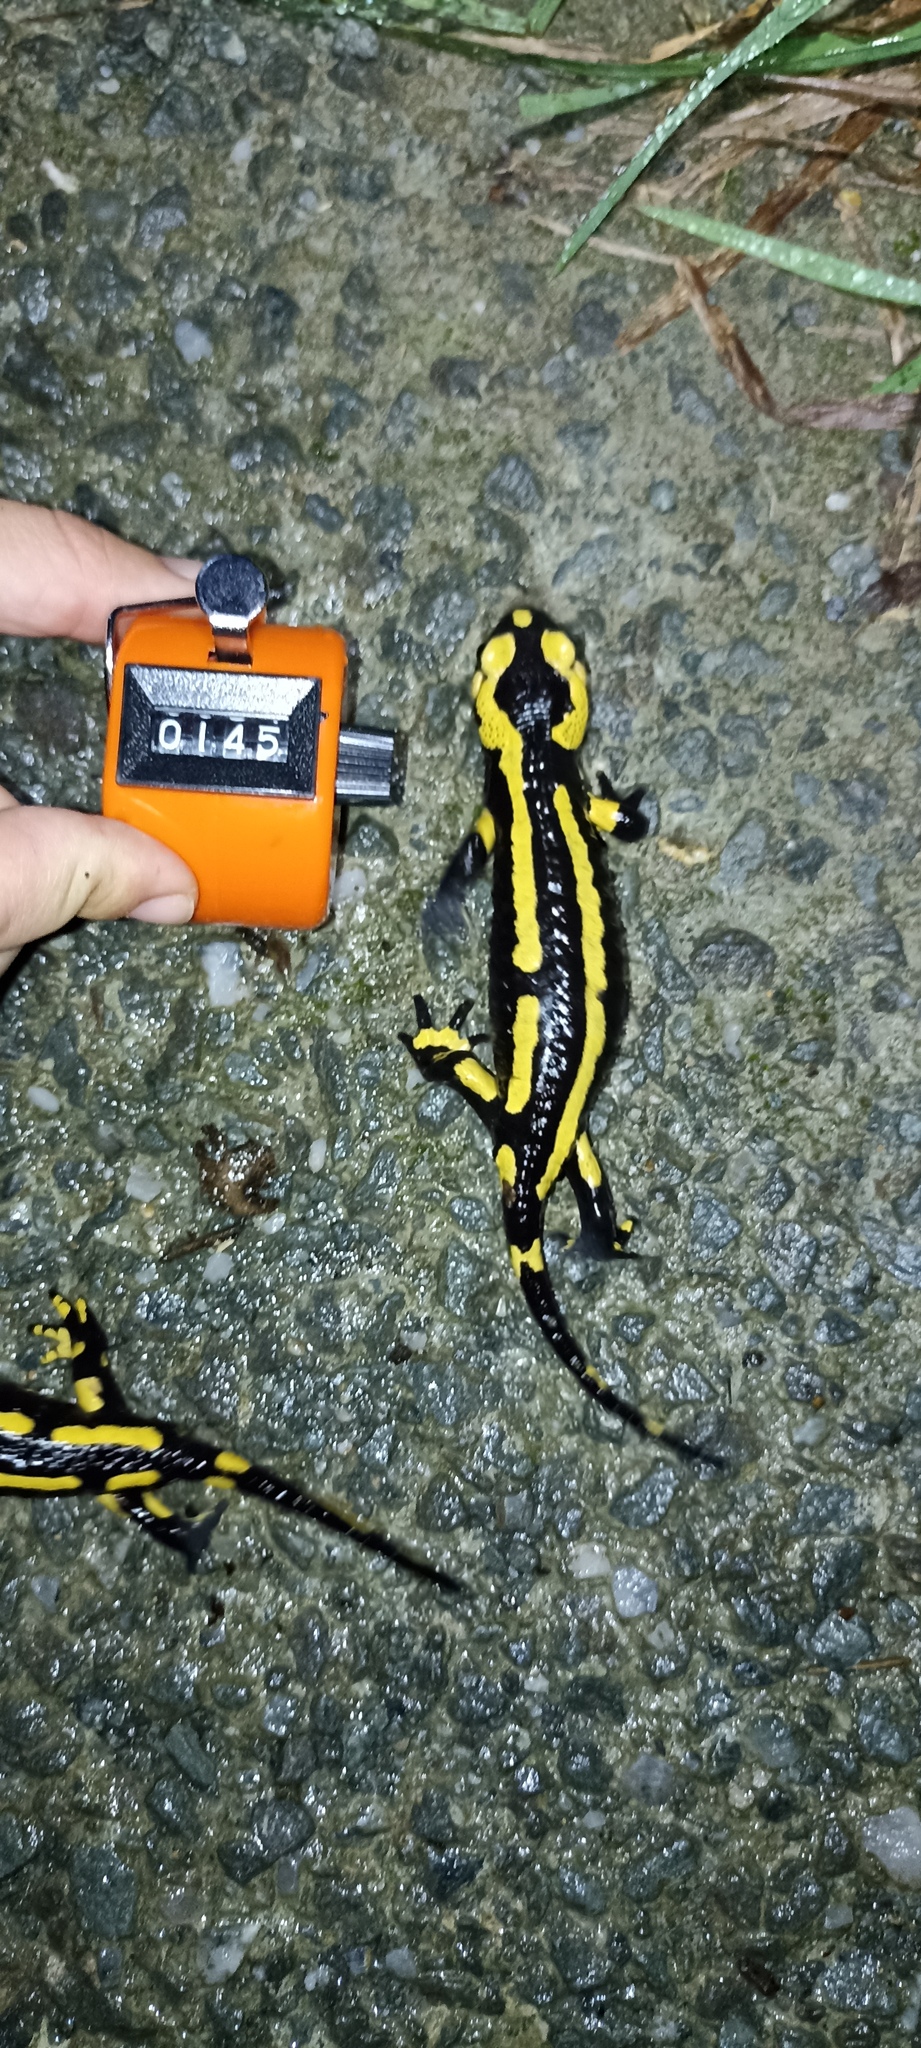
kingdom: Animalia
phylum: Chordata
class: Amphibia
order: Caudata
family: Salamandridae
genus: Salamandra
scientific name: Salamandra salamandra
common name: Fire salamander
